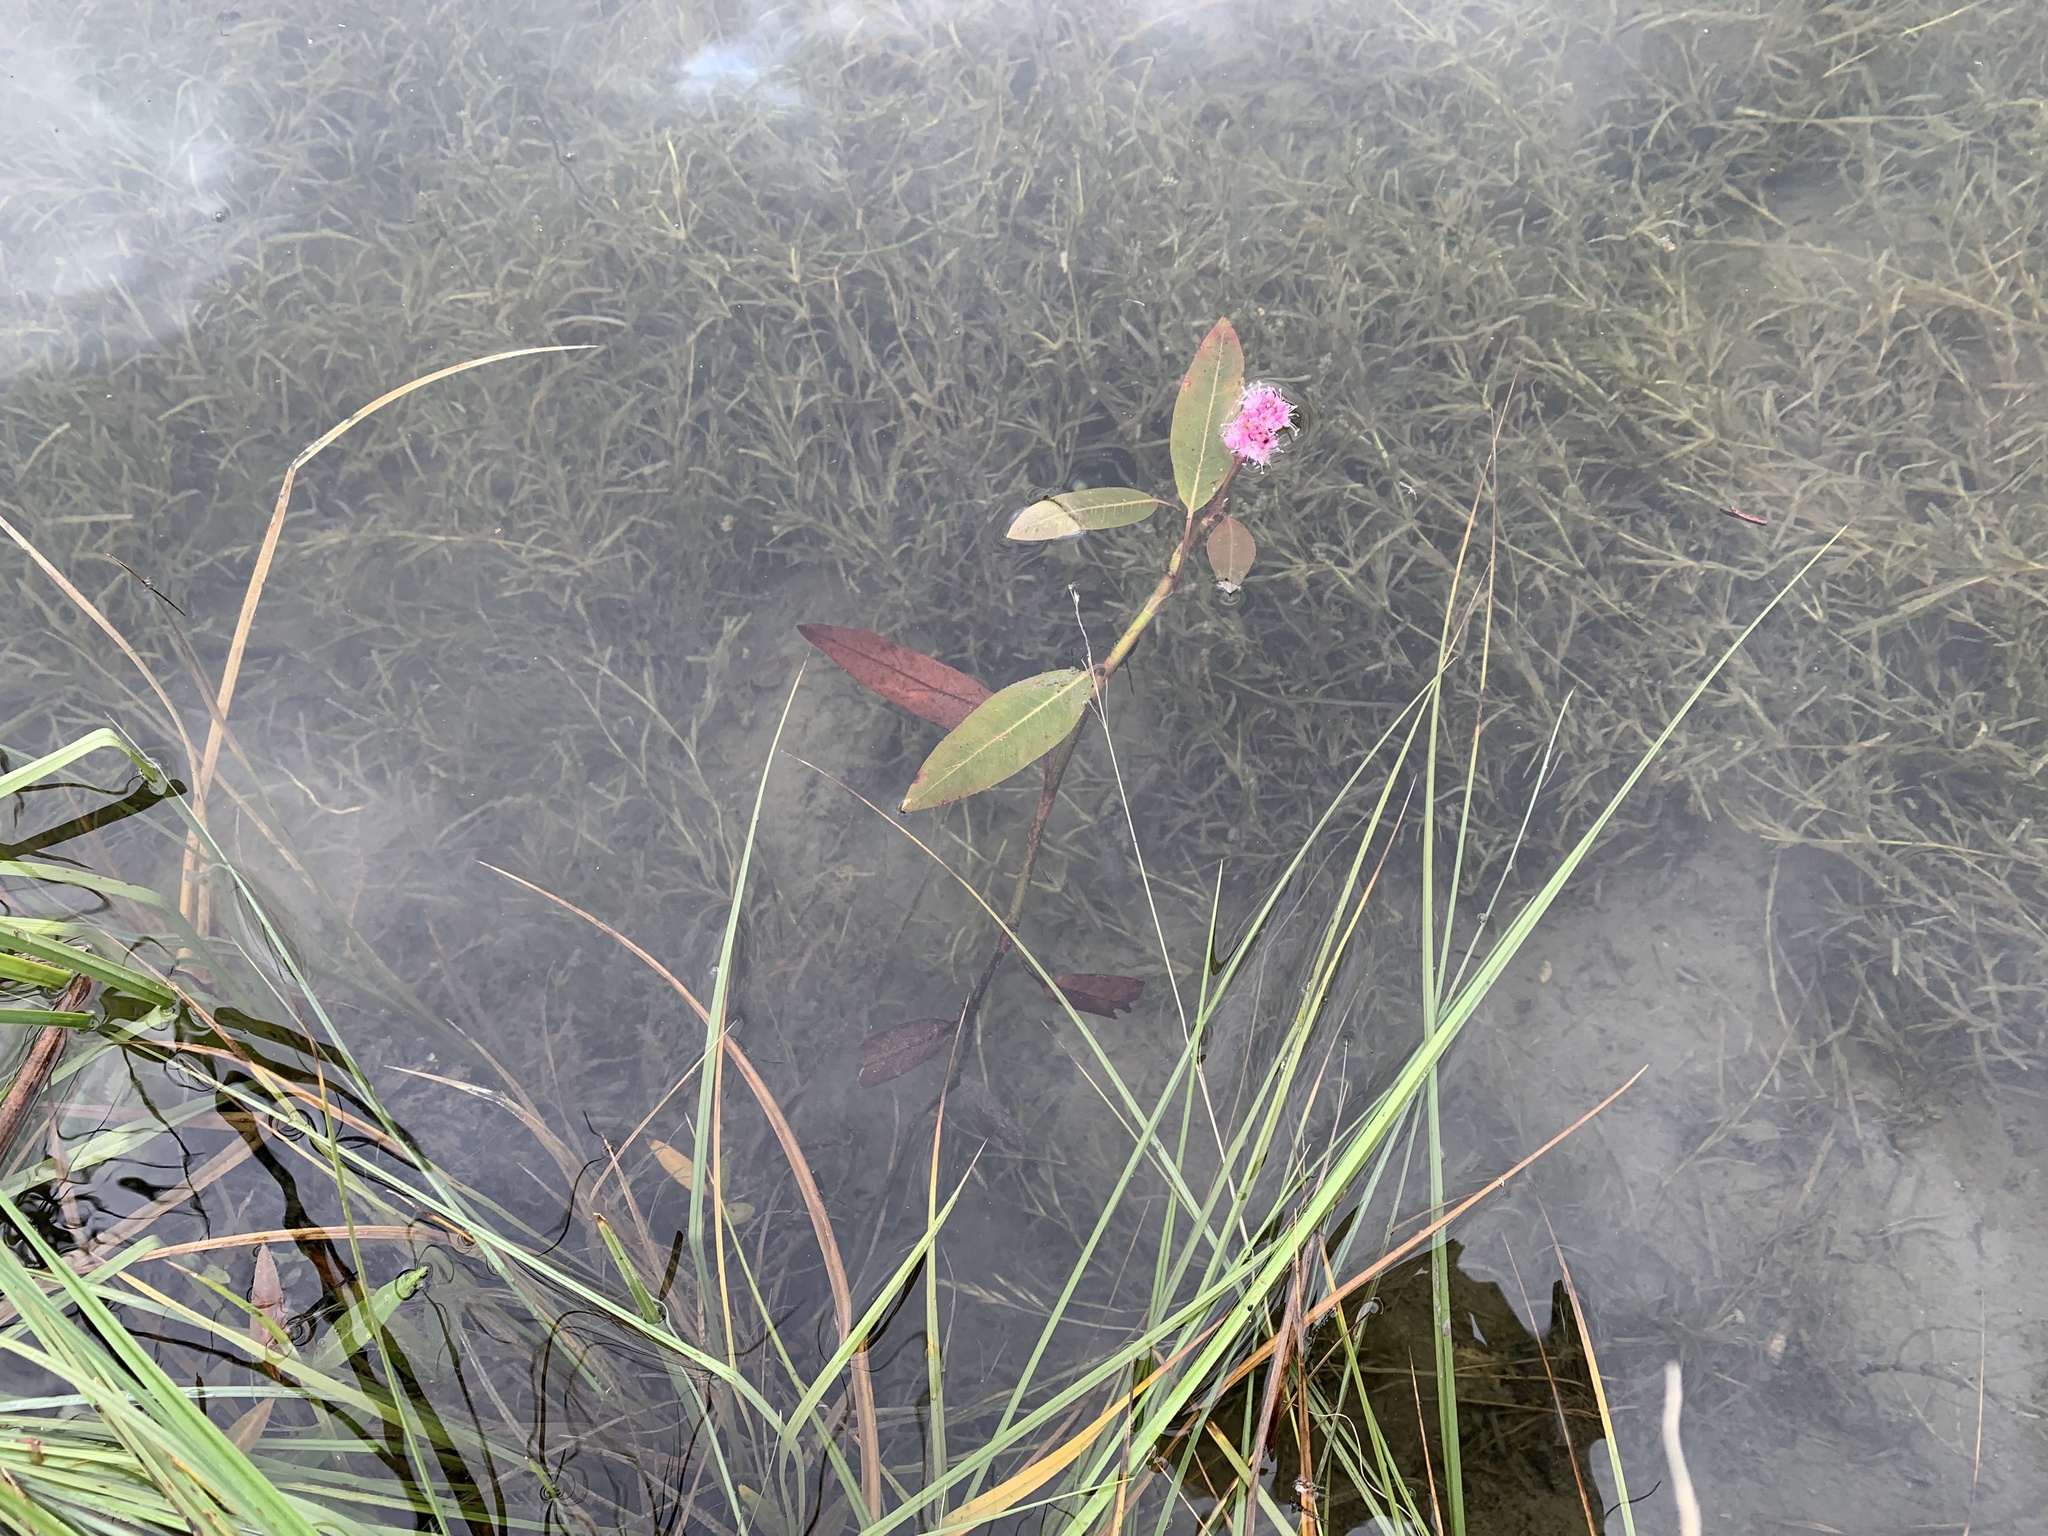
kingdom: Plantae
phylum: Tracheophyta
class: Magnoliopsida
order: Caryophyllales
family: Polygonaceae
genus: Persicaria
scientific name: Persicaria amphibia
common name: Amphibious bistort
